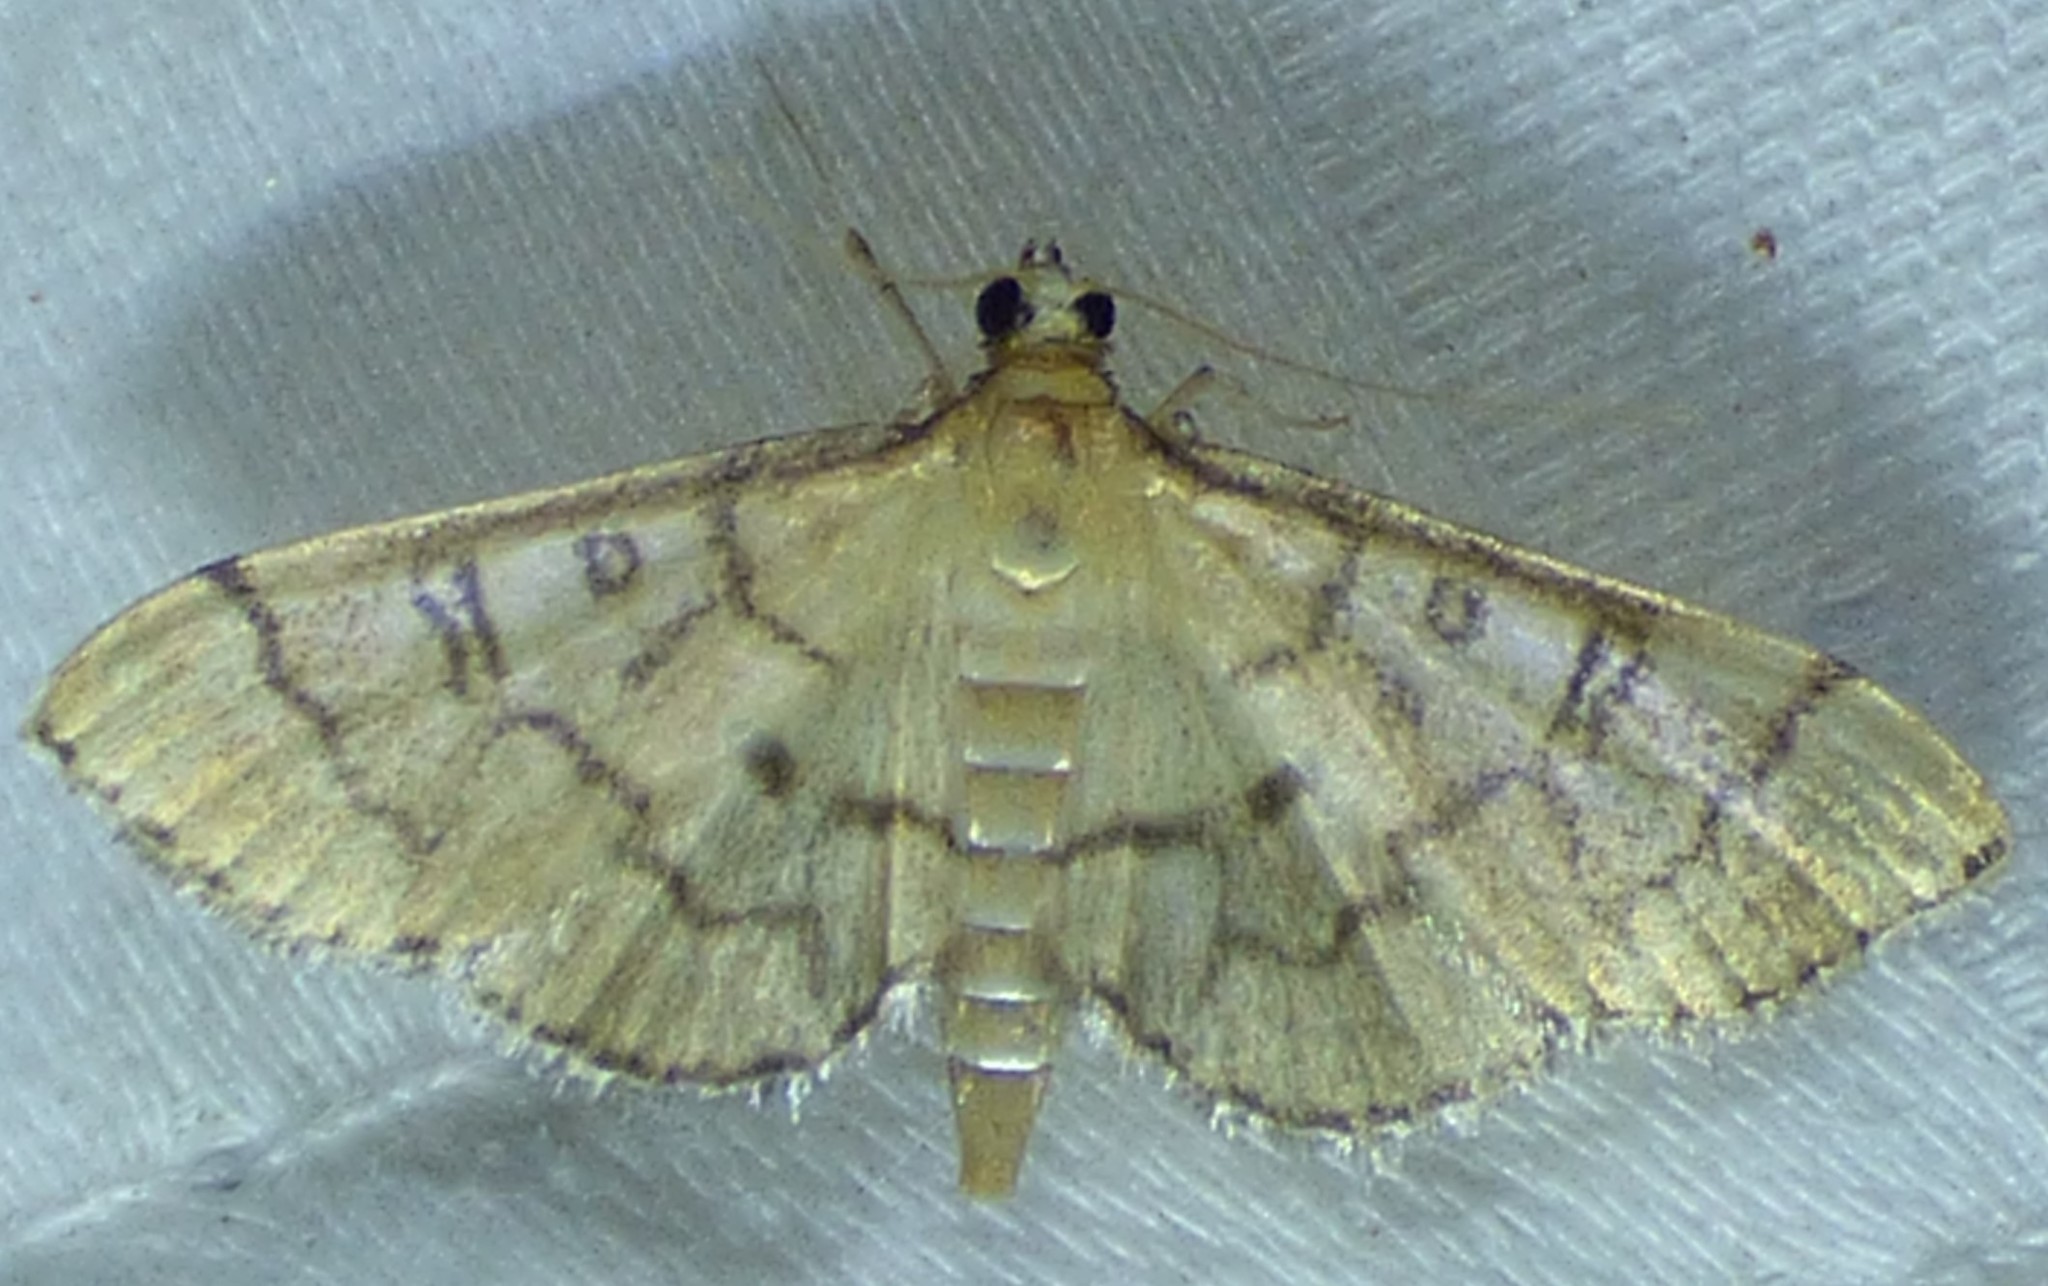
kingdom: Animalia
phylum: Arthropoda
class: Insecta
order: Lepidoptera
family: Crambidae
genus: Lamprosema
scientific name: Lamprosema Blepharomastix ranalis
